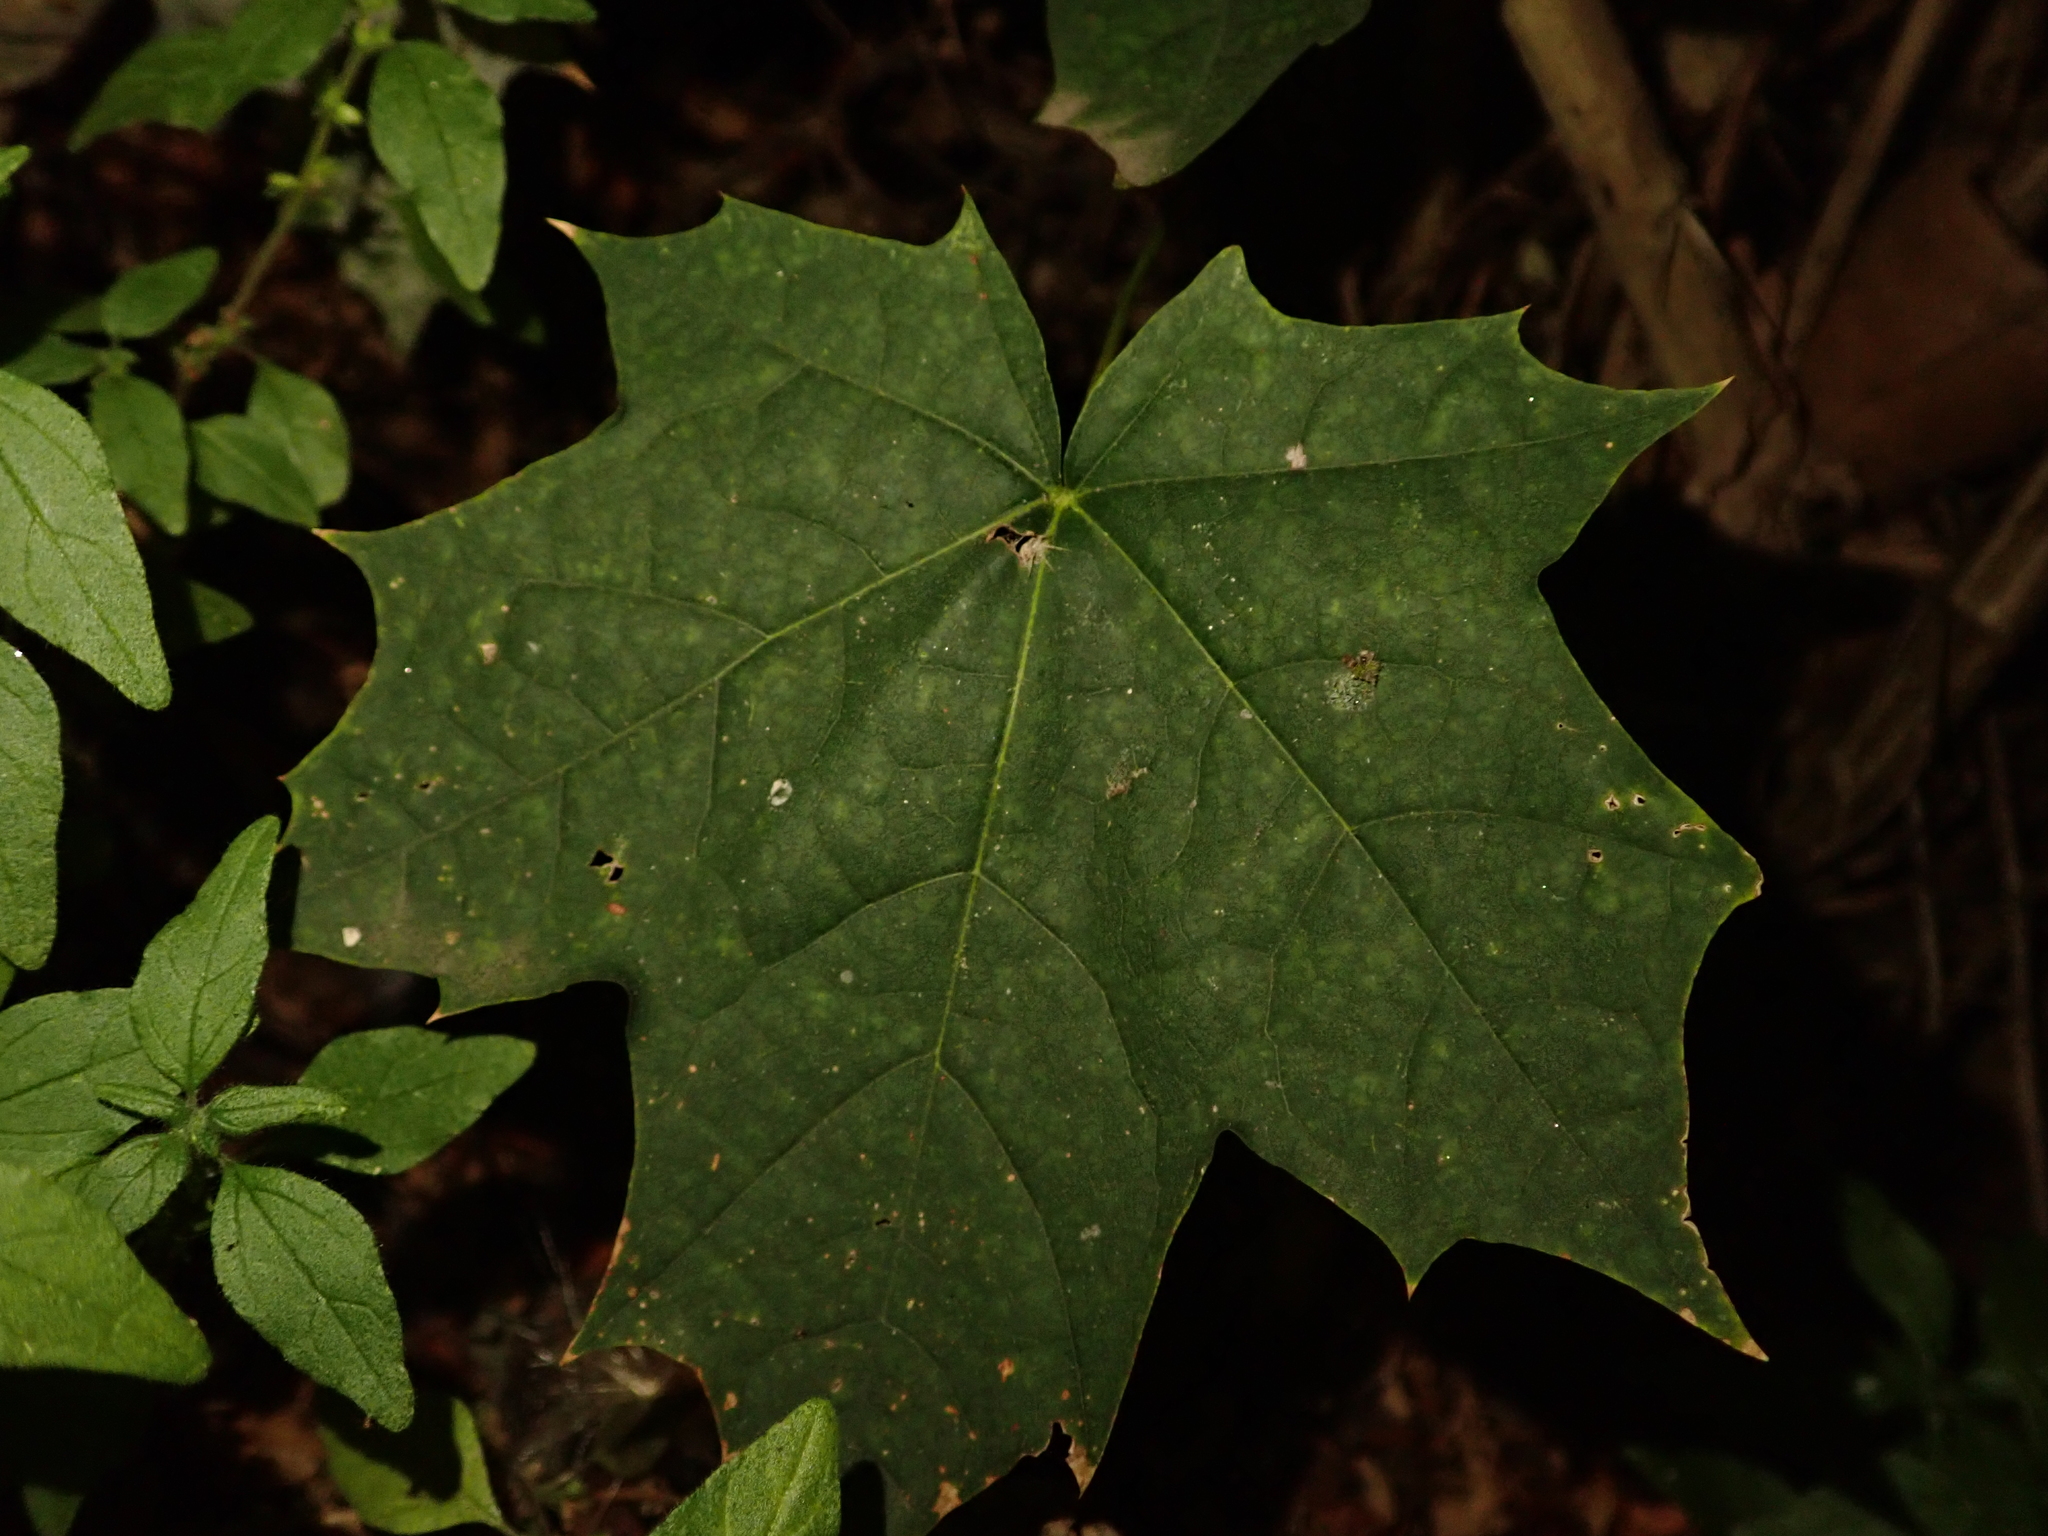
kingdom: Plantae
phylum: Tracheophyta
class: Magnoliopsida
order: Sapindales
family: Sapindaceae
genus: Acer
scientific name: Acer platanoides
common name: Norway maple
